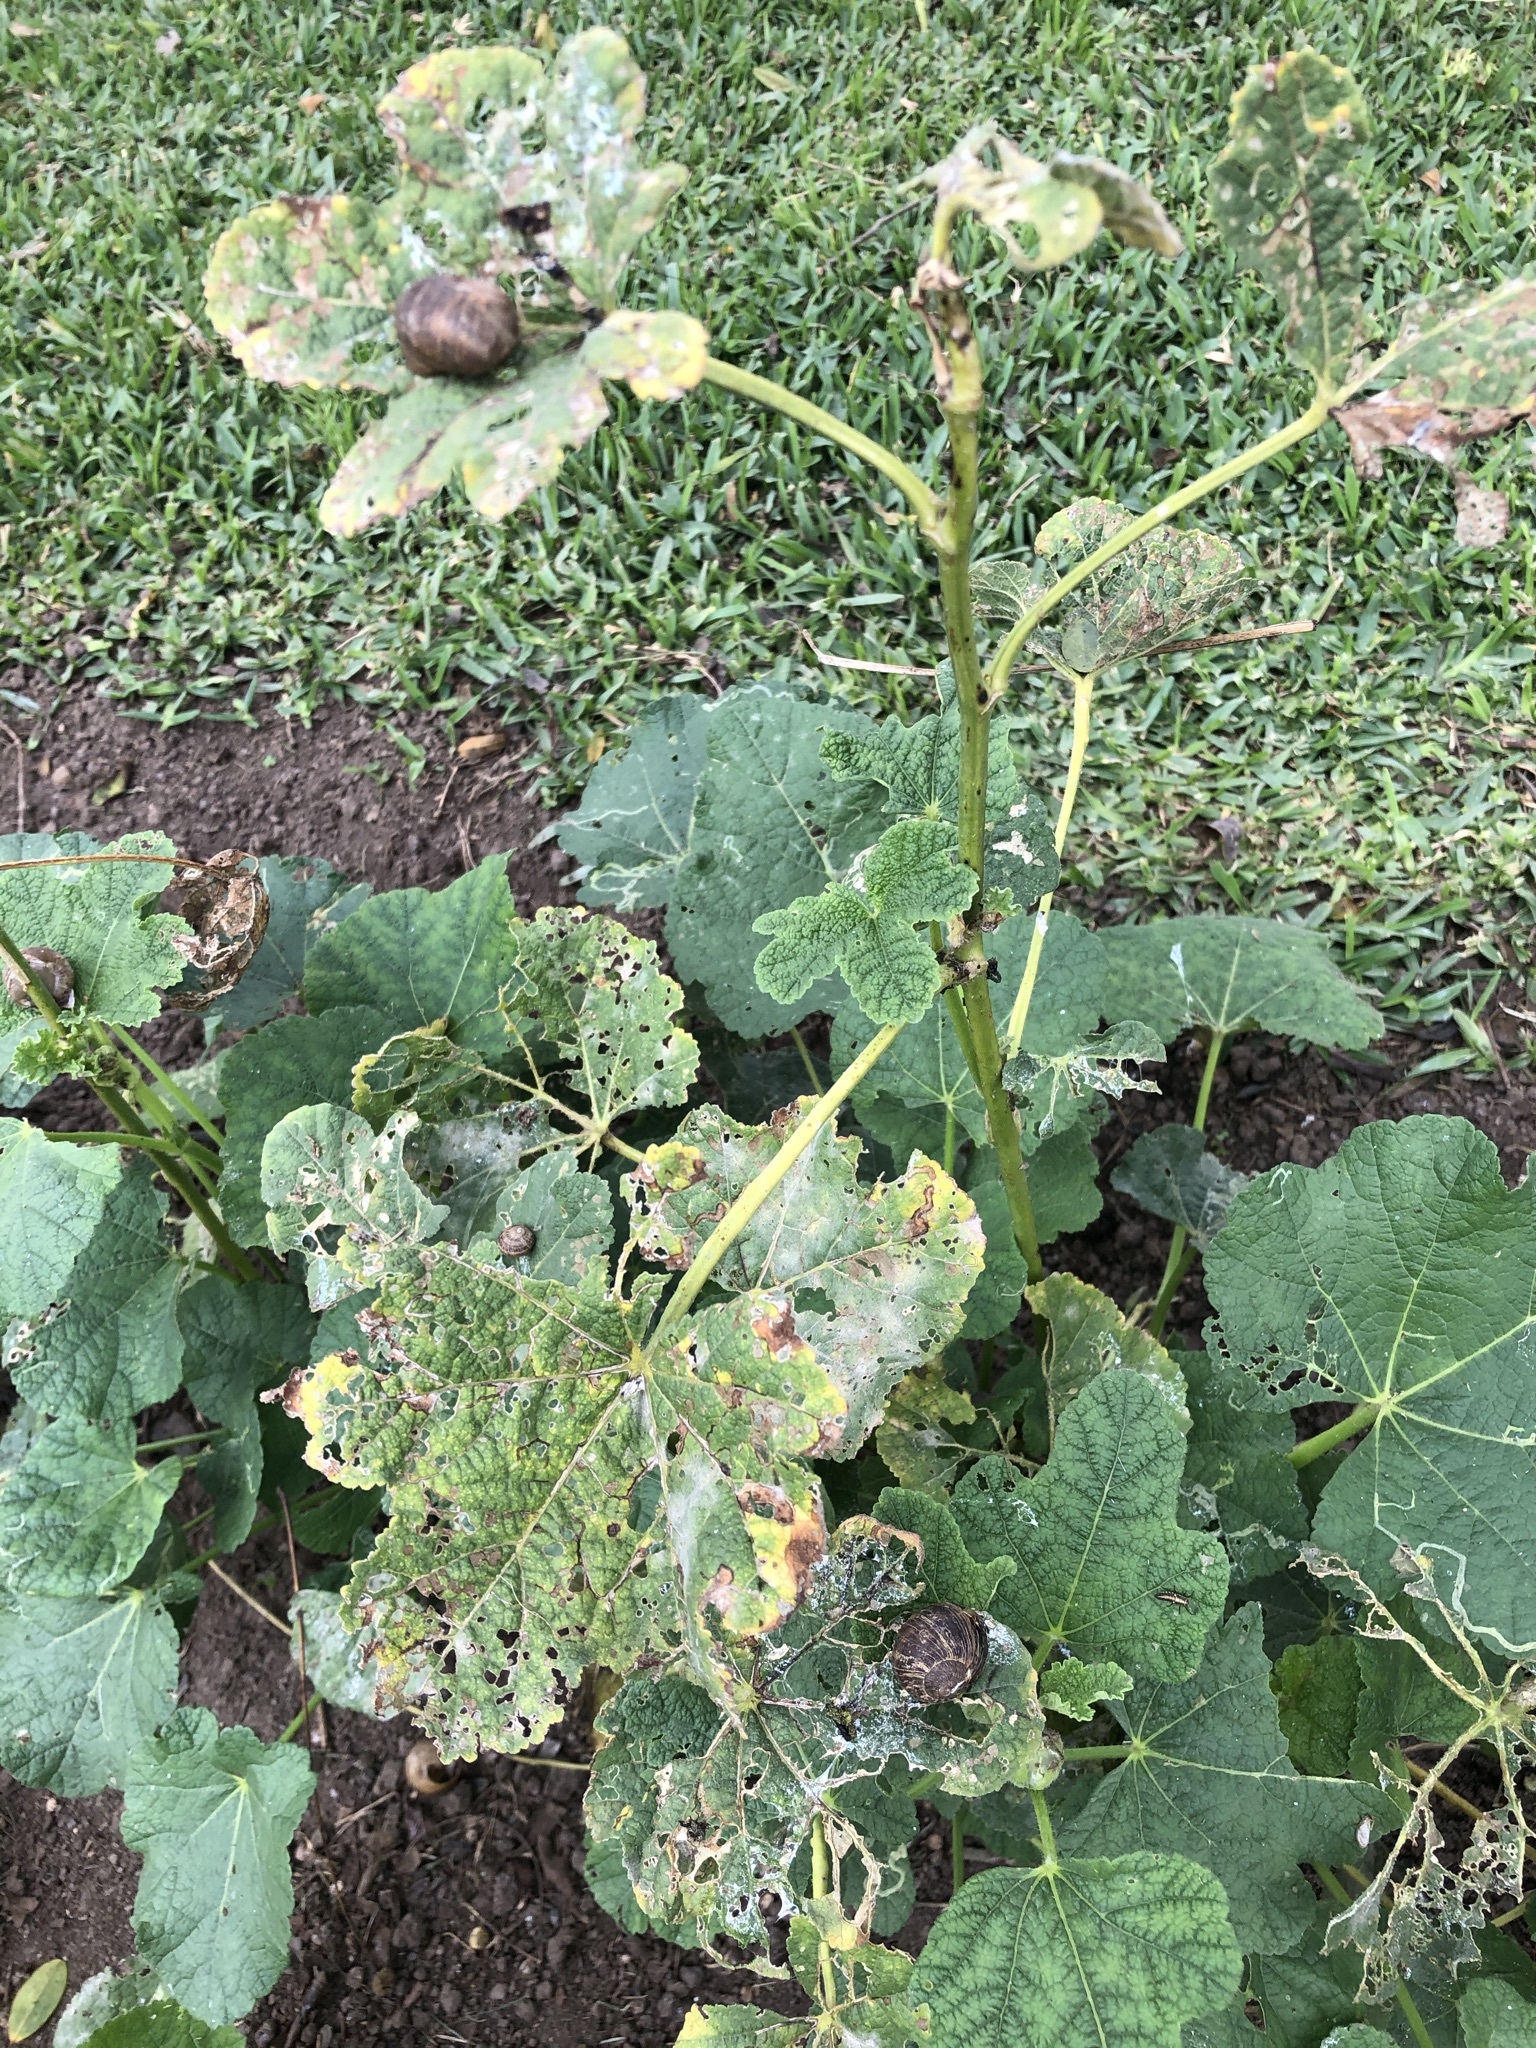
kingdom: Animalia
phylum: Mollusca
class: Gastropoda
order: Stylommatophora
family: Helicidae
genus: Cornu
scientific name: Cornu aspersum
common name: Brown garden snail
